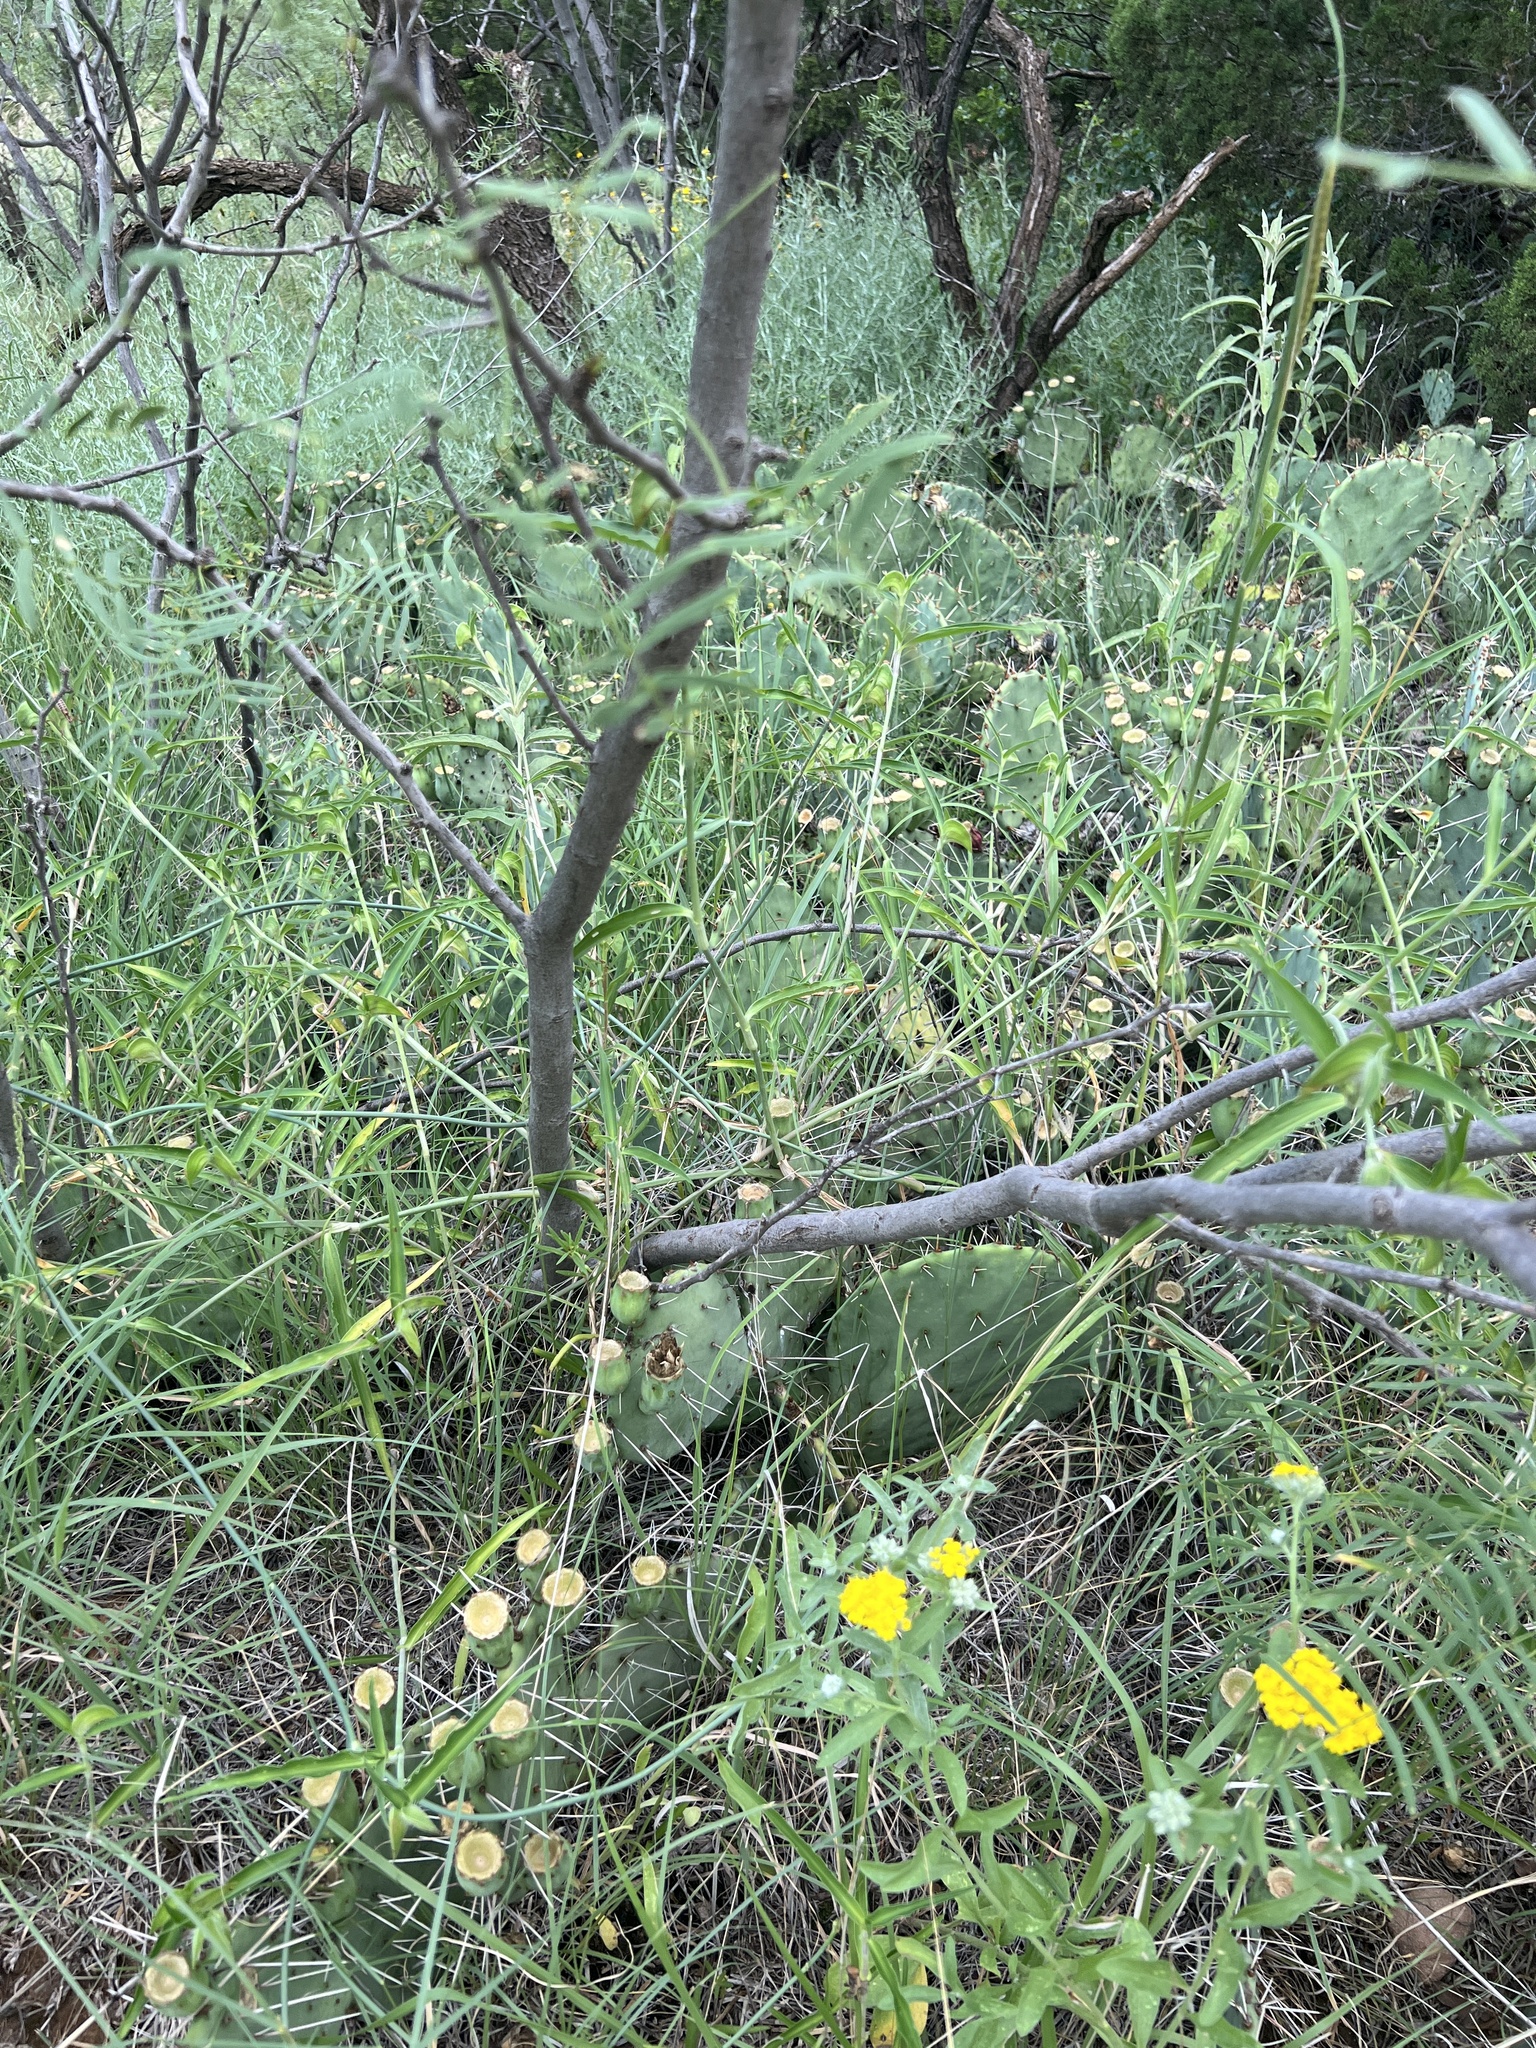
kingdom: Plantae
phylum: Tracheophyta
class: Magnoliopsida
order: Fabales
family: Fabaceae
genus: Prosopis
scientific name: Prosopis glandulosa
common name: Honey mesquite
